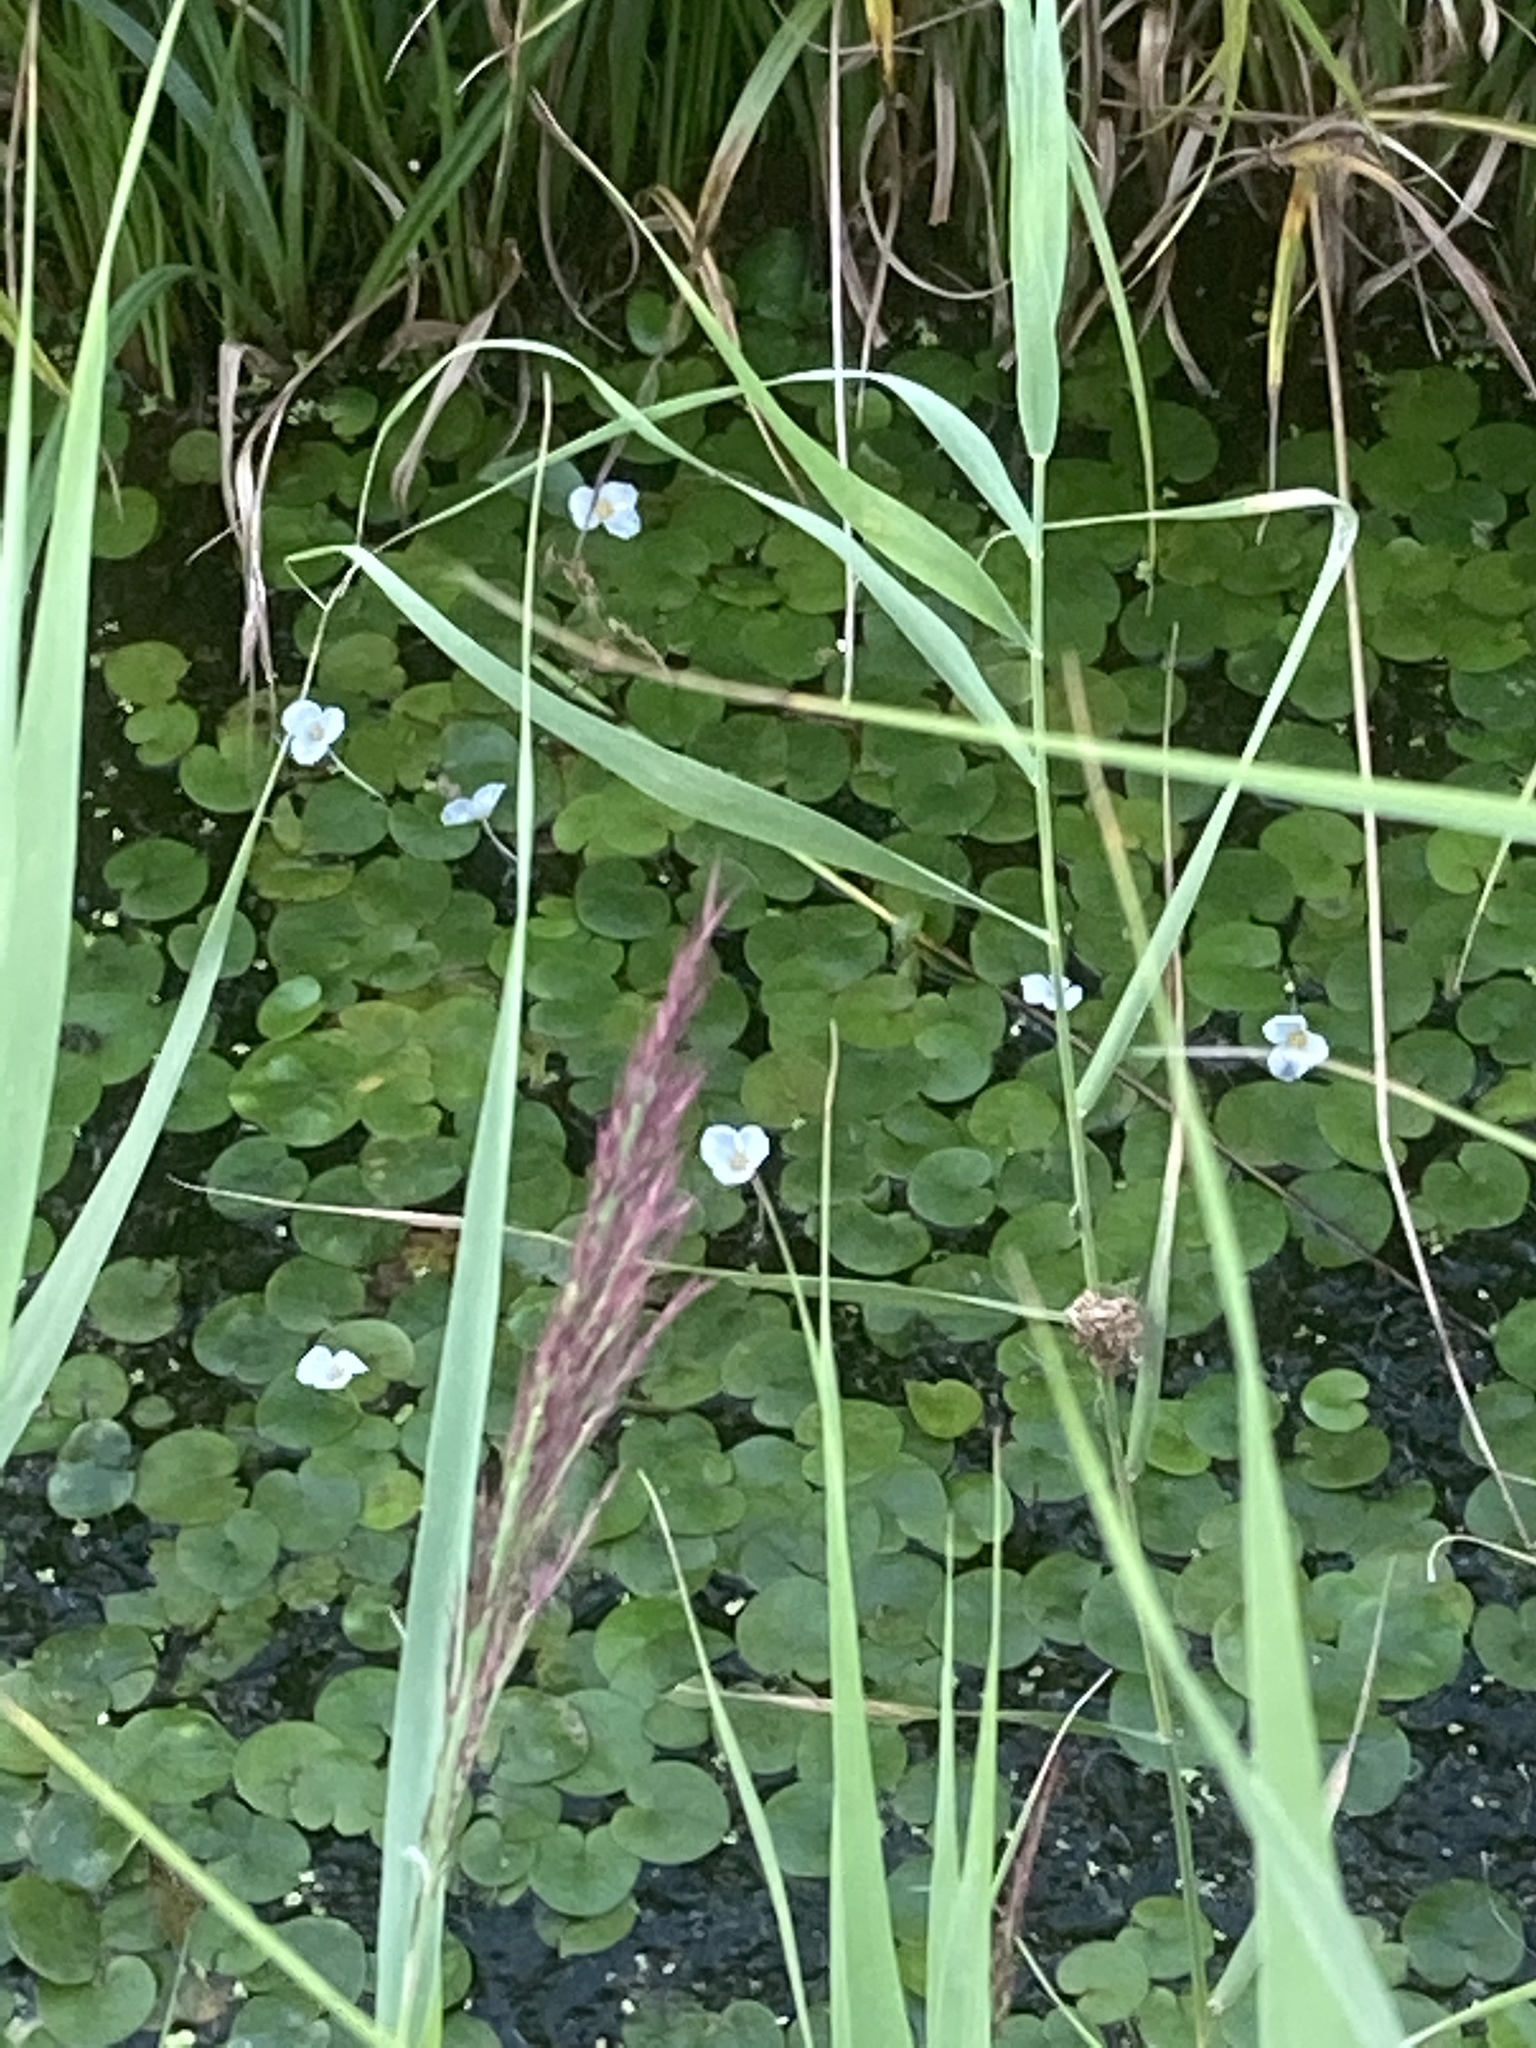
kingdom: Plantae
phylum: Tracheophyta
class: Liliopsida
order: Alismatales
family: Hydrocharitaceae
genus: Hydrocharis
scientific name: Hydrocharis morsus-ranae
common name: Frogbit
